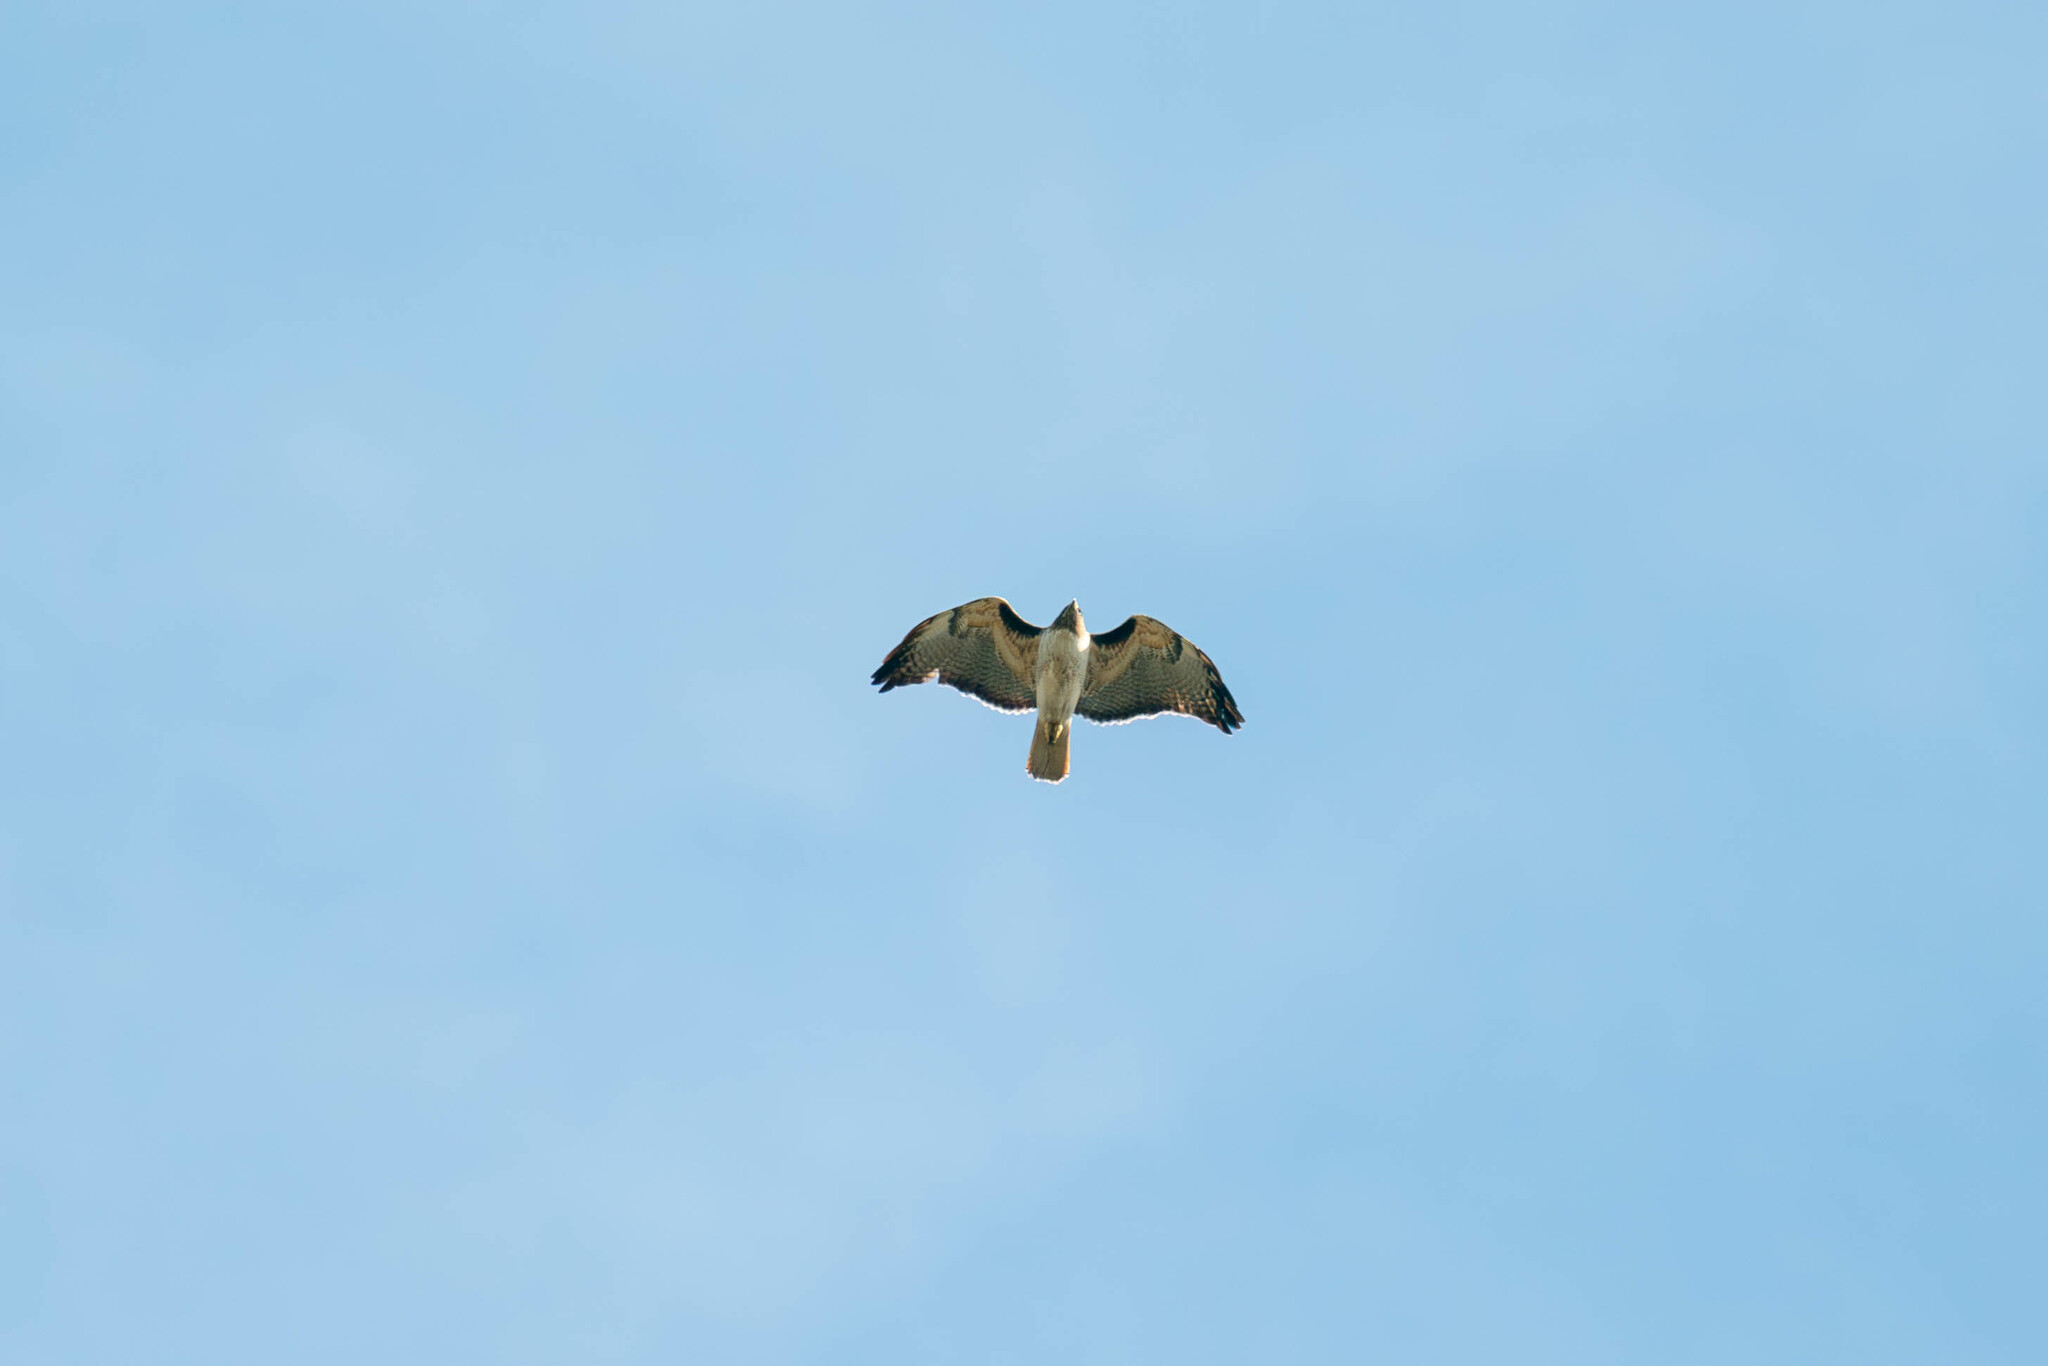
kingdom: Animalia
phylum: Chordata
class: Aves
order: Accipitriformes
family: Accipitridae
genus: Buteo
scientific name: Buteo jamaicensis
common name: Red-tailed hawk
